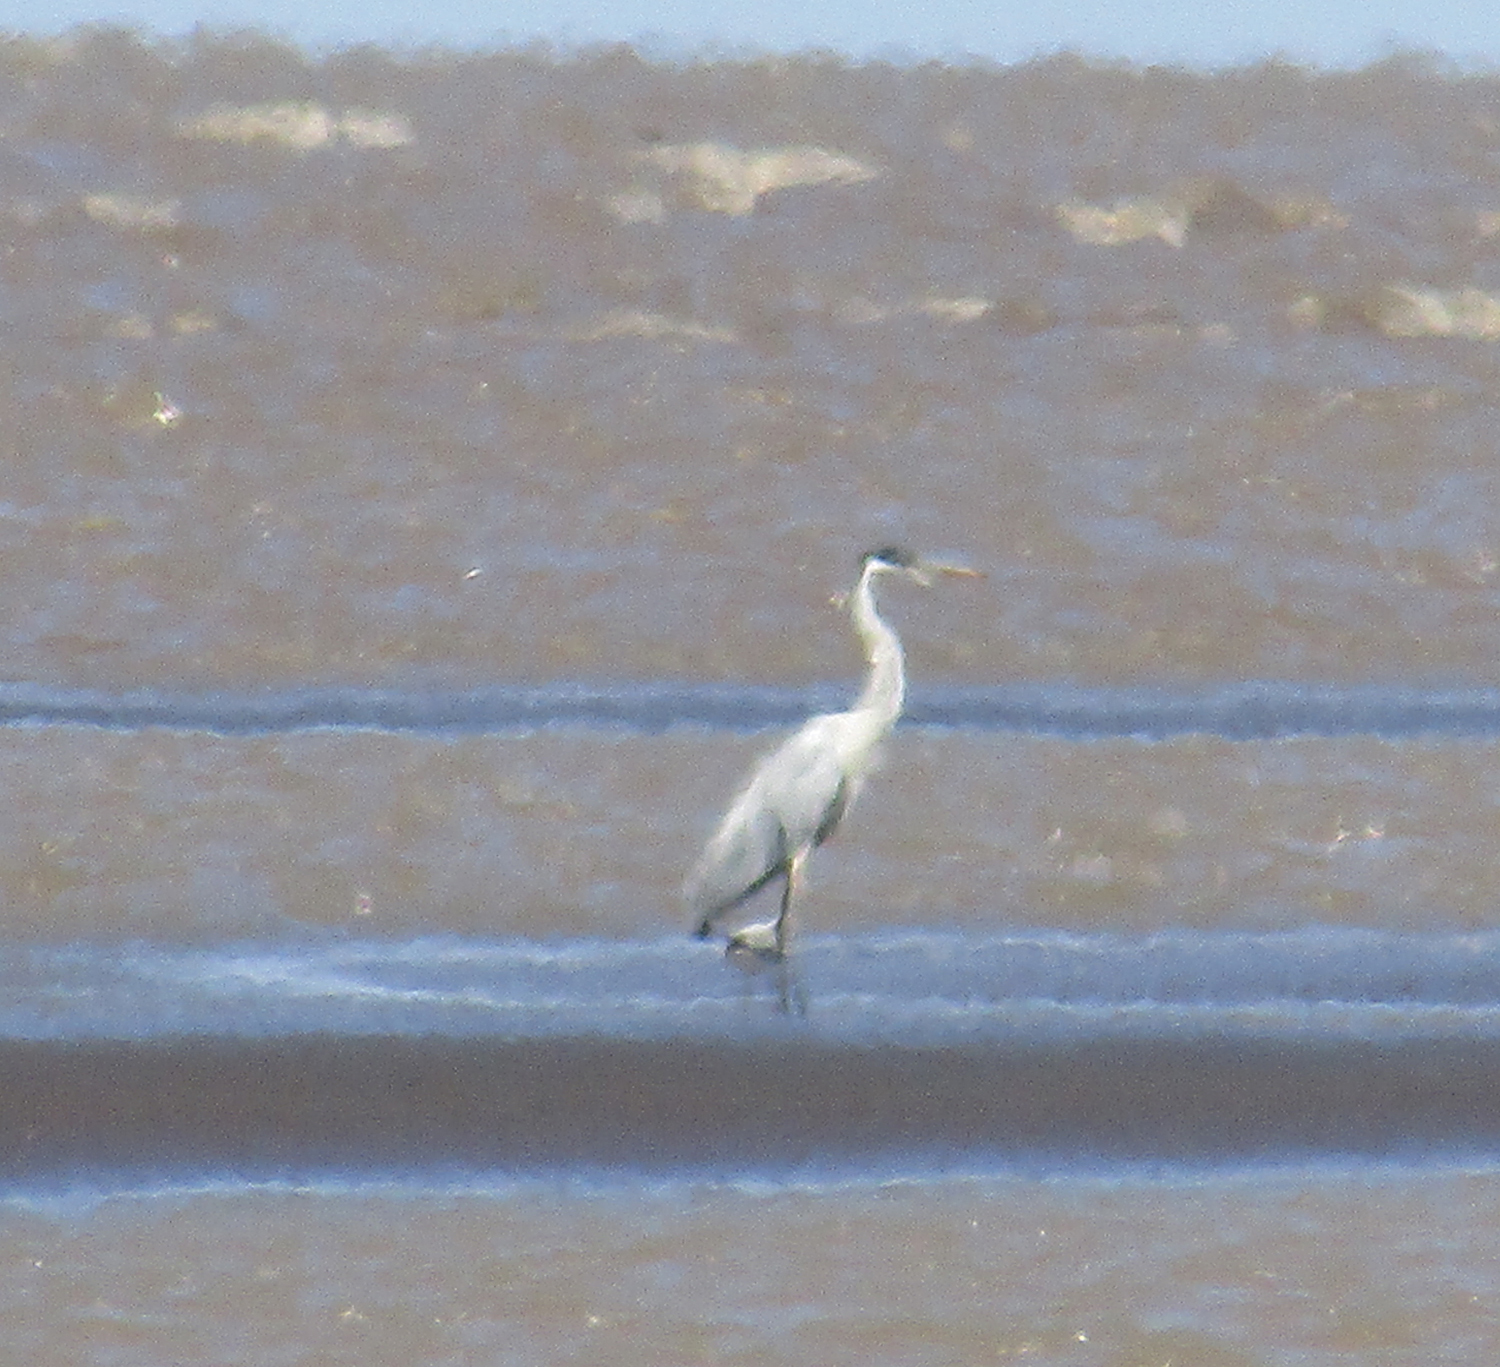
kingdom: Animalia
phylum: Chordata
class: Aves
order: Pelecaniformes
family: Ardeidae
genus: Ardea
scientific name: Ardea cocoi
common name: Cocoi heron
